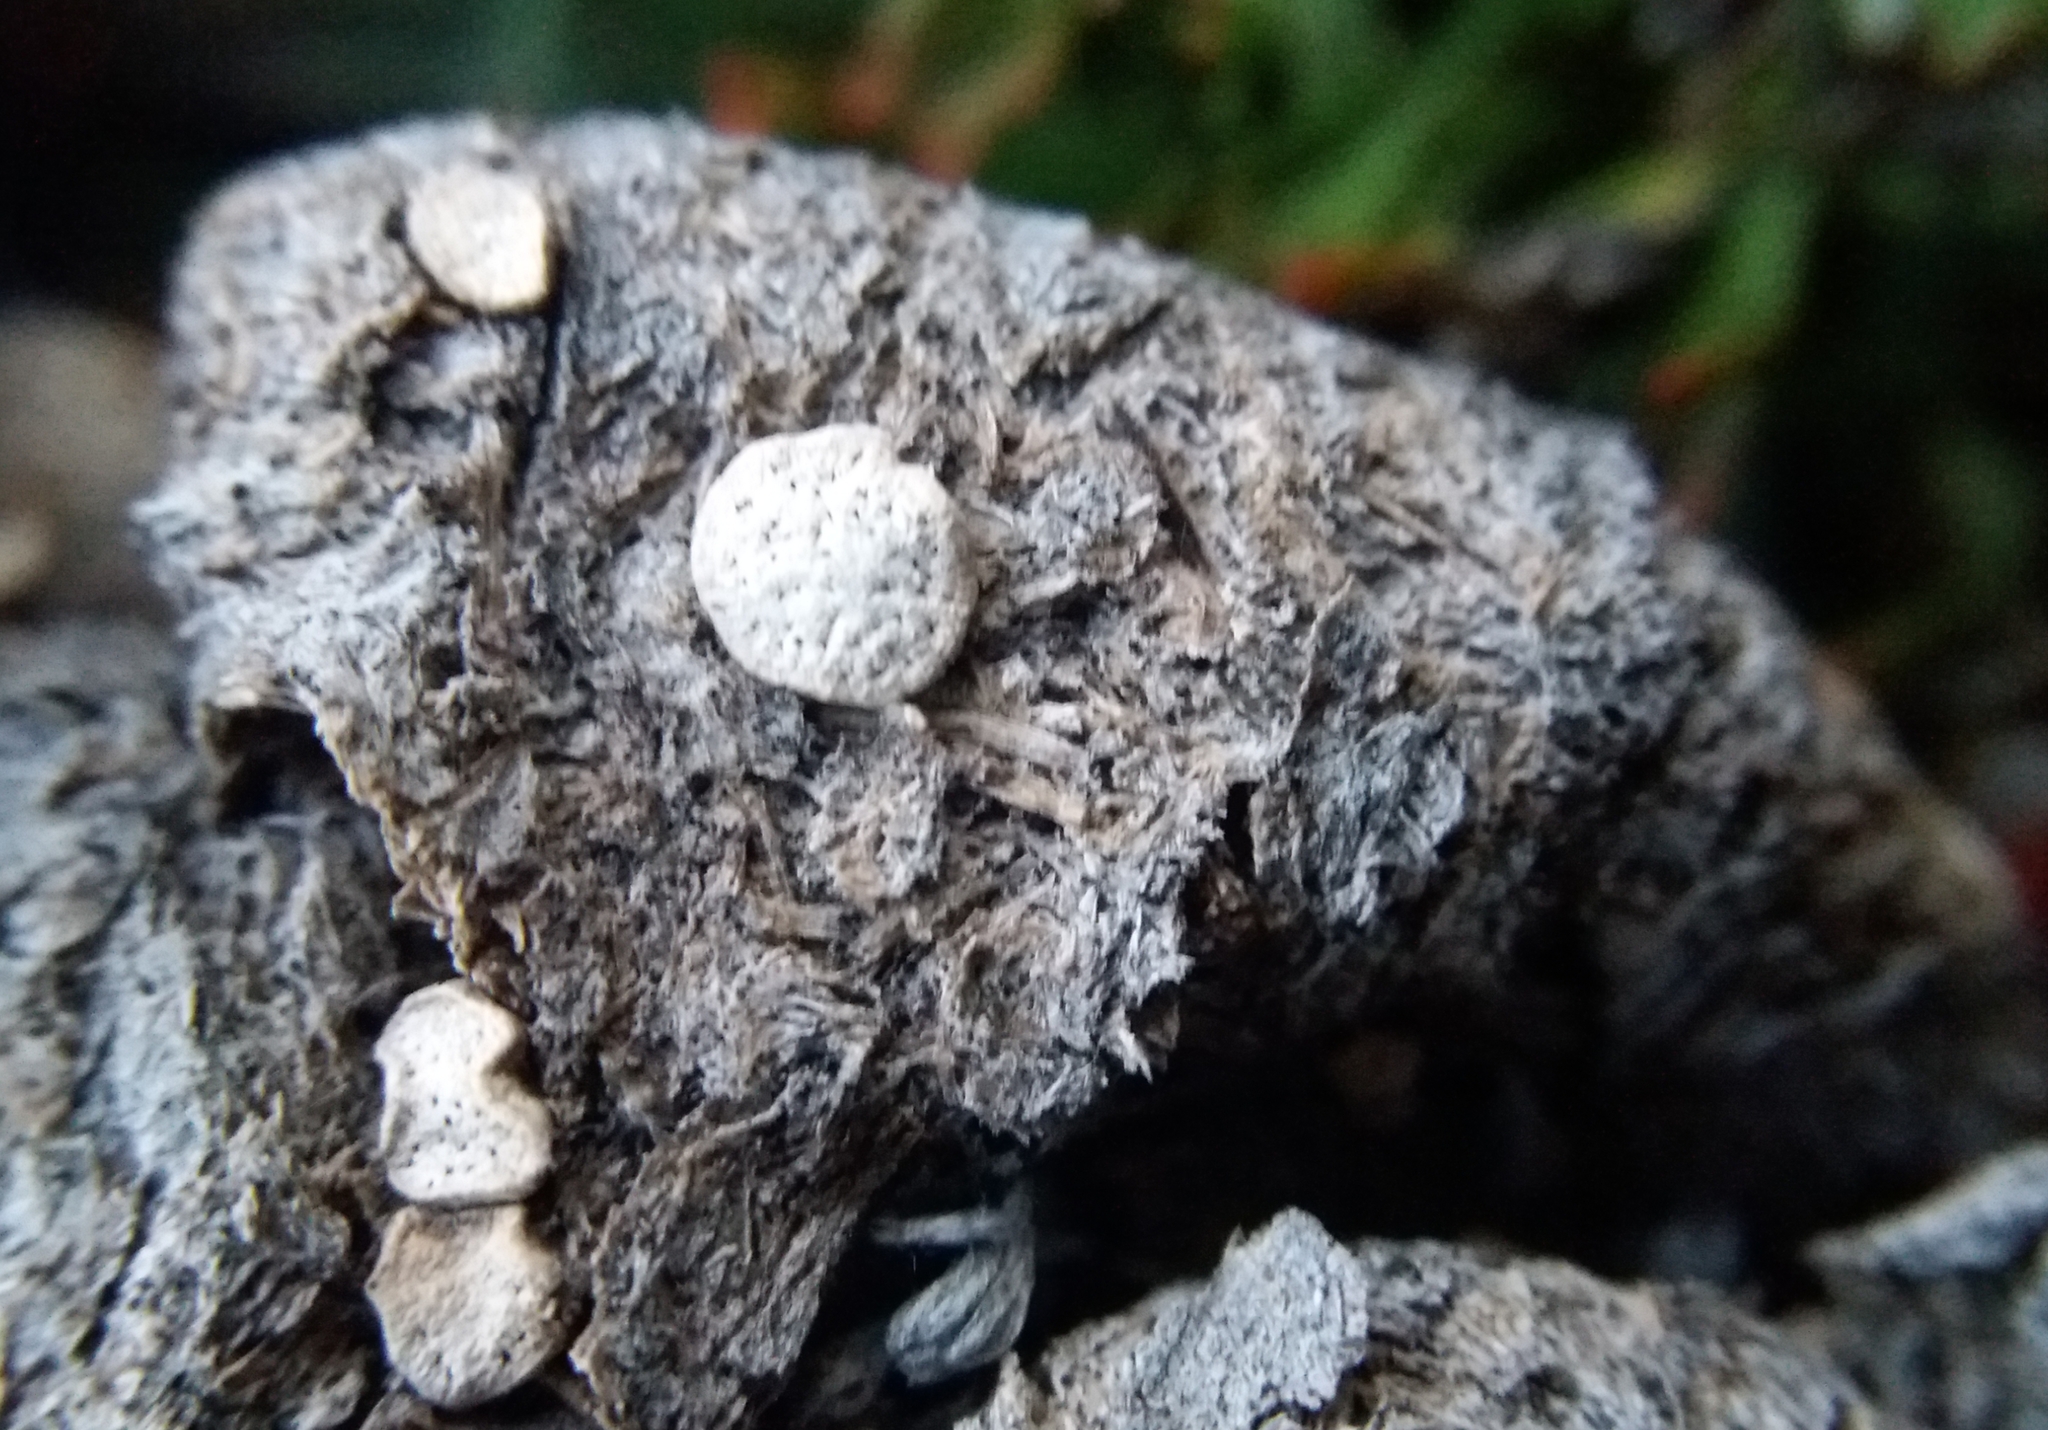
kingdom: Fungi
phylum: Ascomycota
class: Sordariomycetes
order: Xylariales
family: Xylariaceae
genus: Poronia
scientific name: Poronia punctata
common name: Nail fungus
